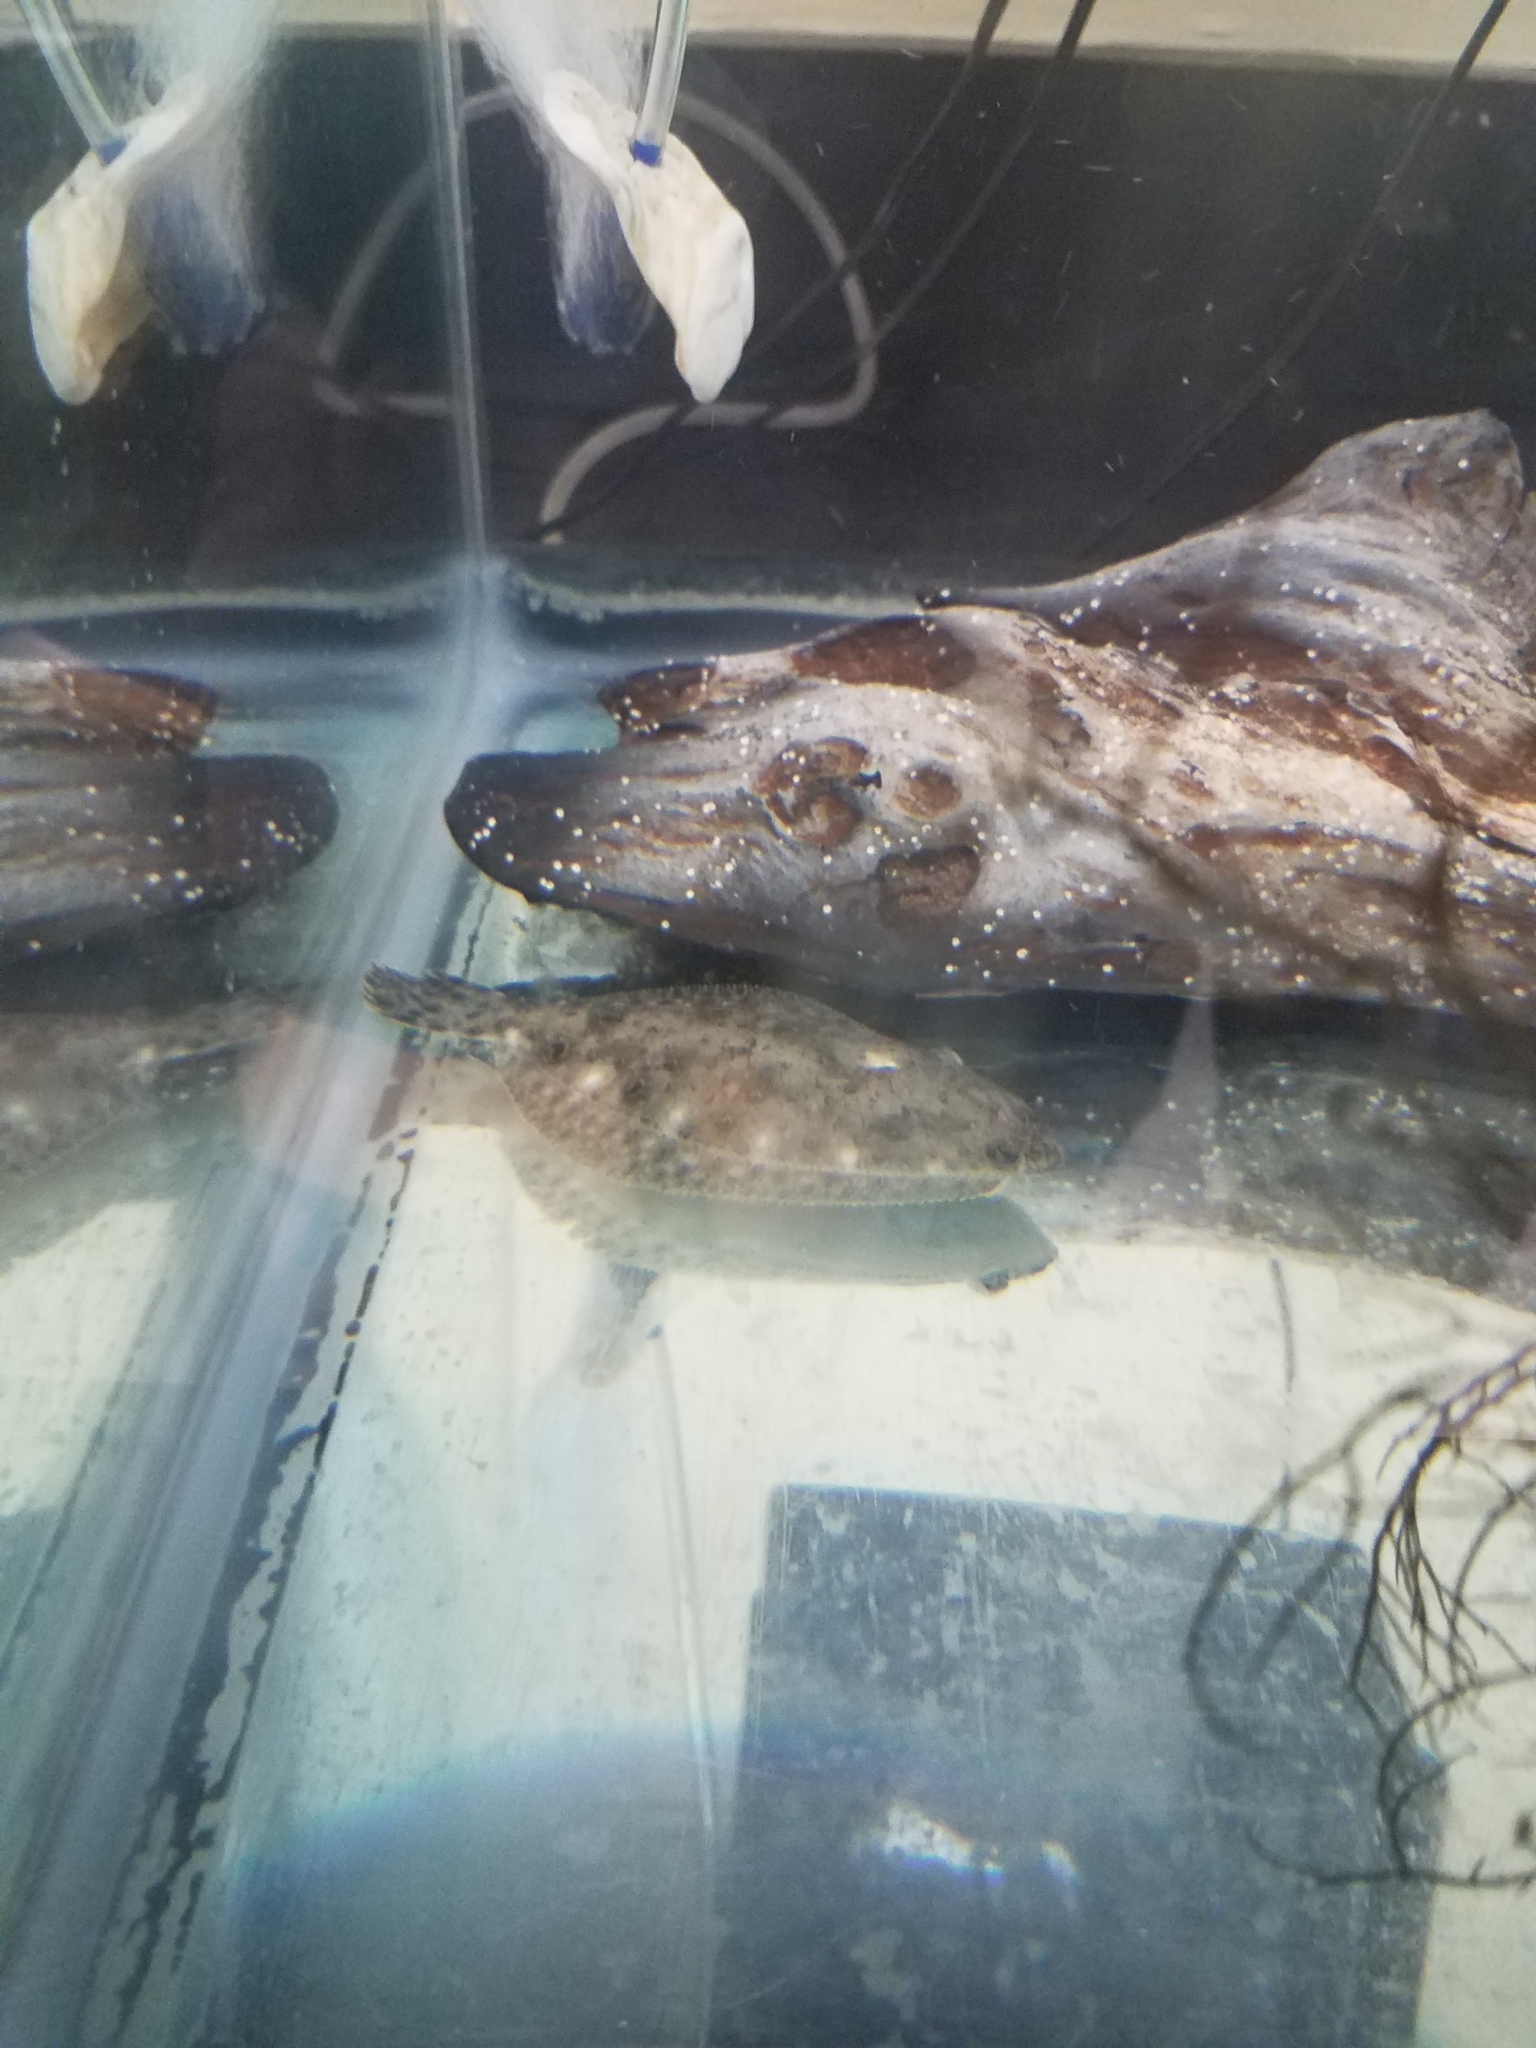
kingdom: Animalia
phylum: Chordata
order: Pleuronectiformes
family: Paralichthyidae
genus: Paralichthys
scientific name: Paralichthys dentatus
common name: Summer flounder
